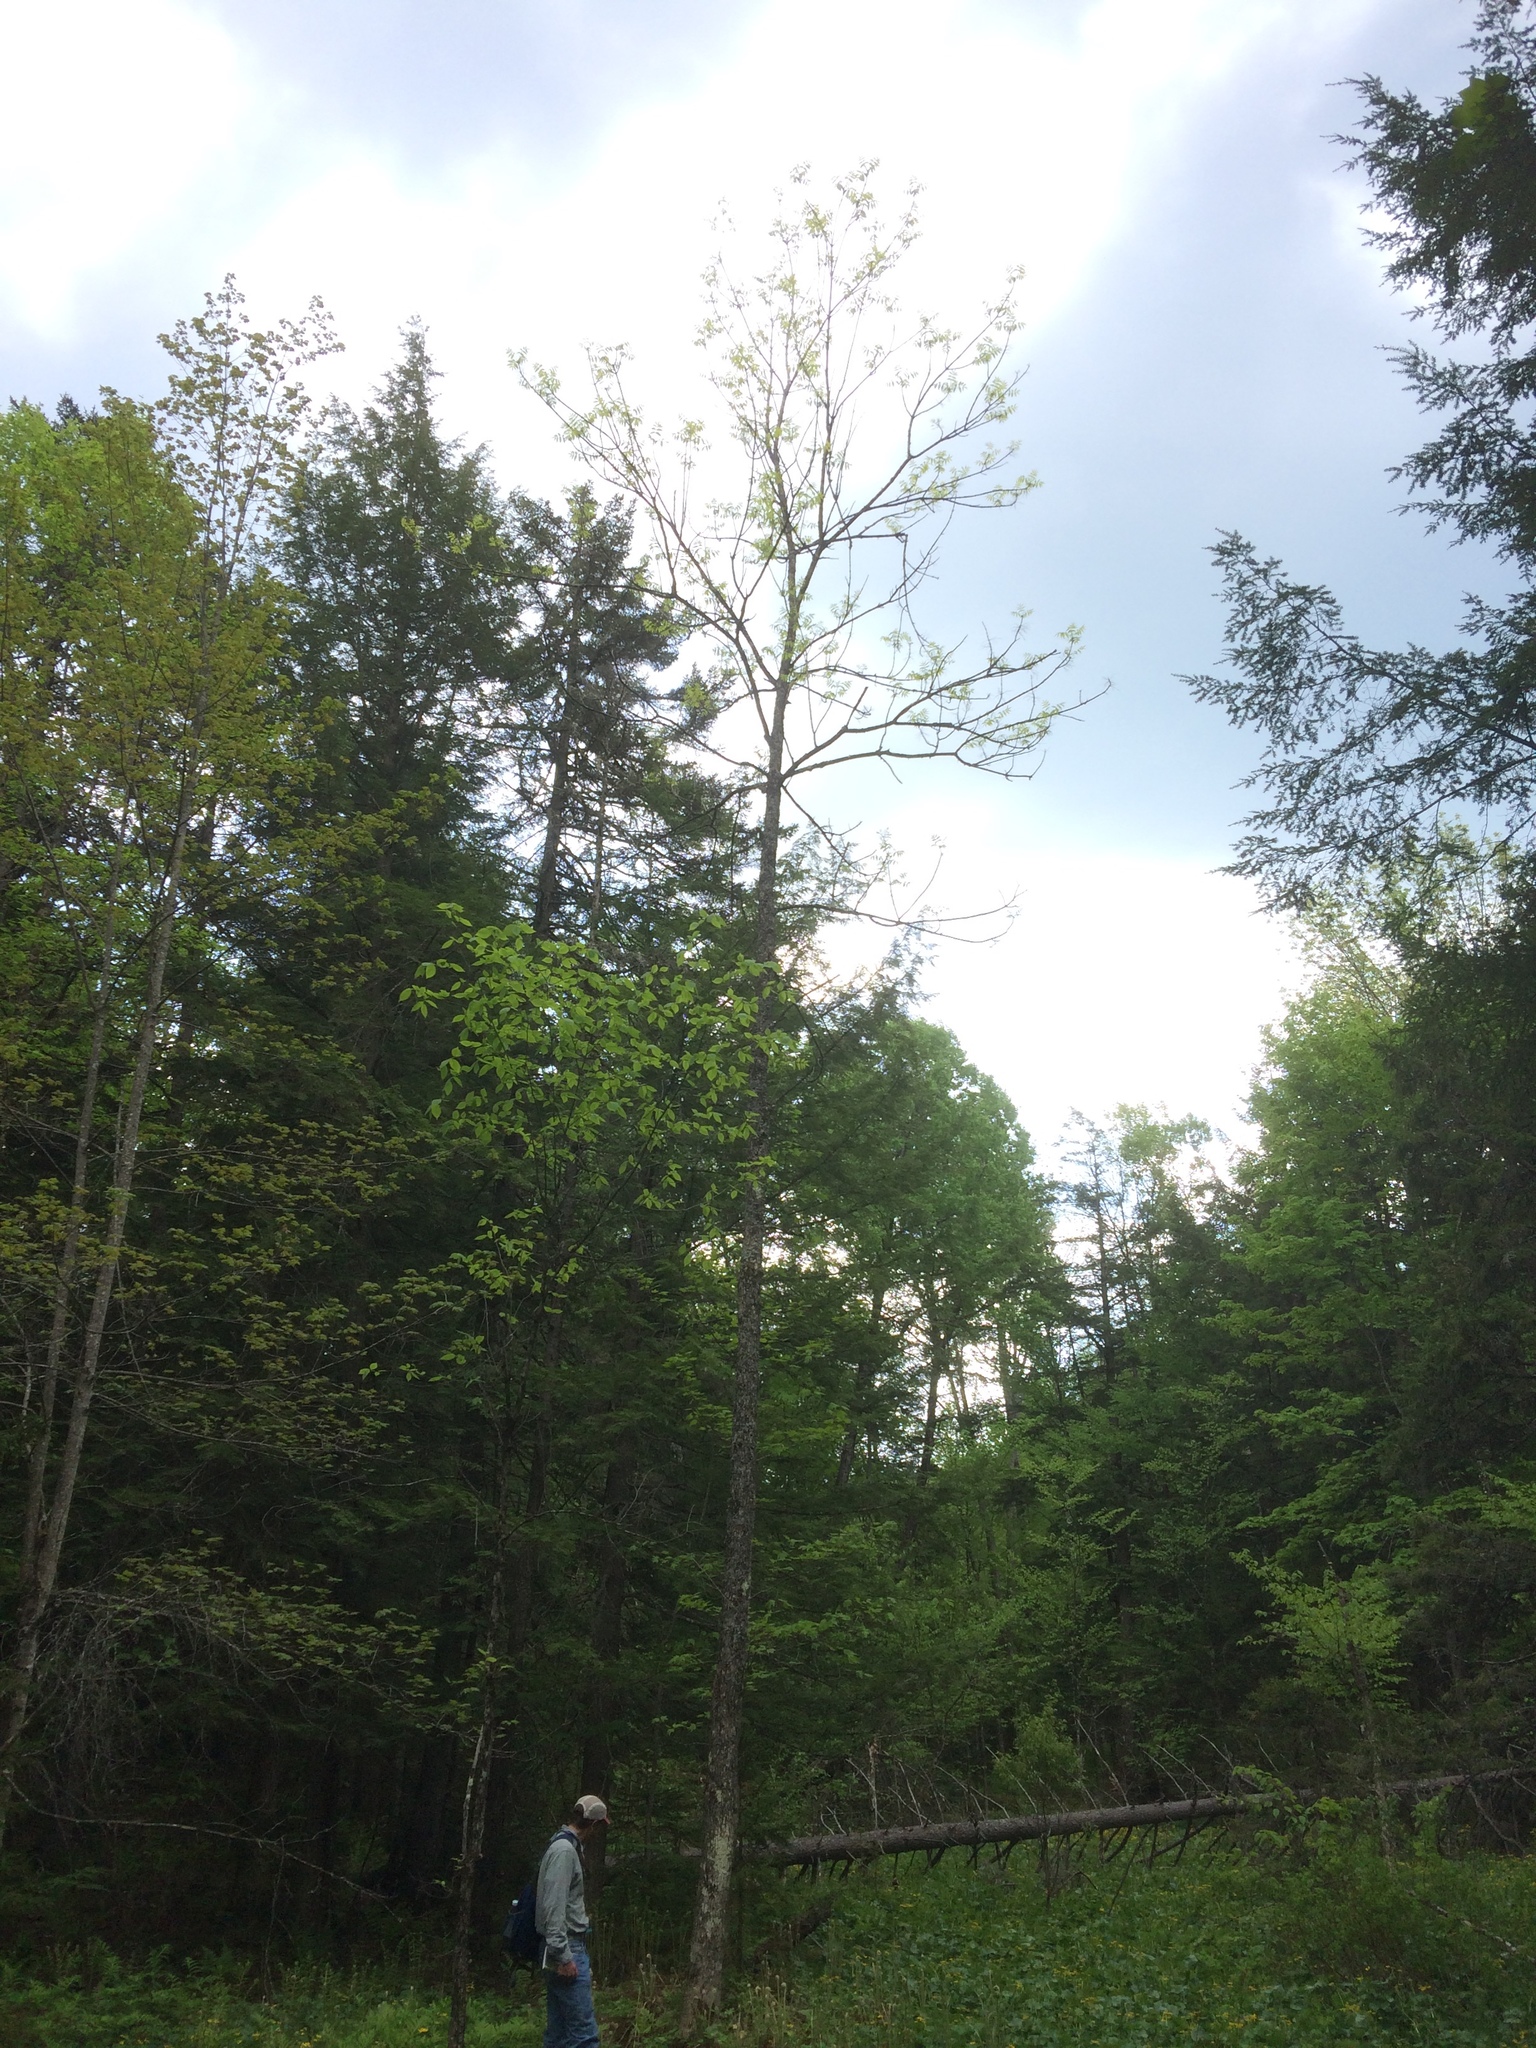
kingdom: Plantae
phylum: Tracheophyta
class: Magnoliopsida
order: Lamiales
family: Oleaceae
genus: Fraxinus
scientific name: Fraxinus pennsylvanica
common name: Green ash
